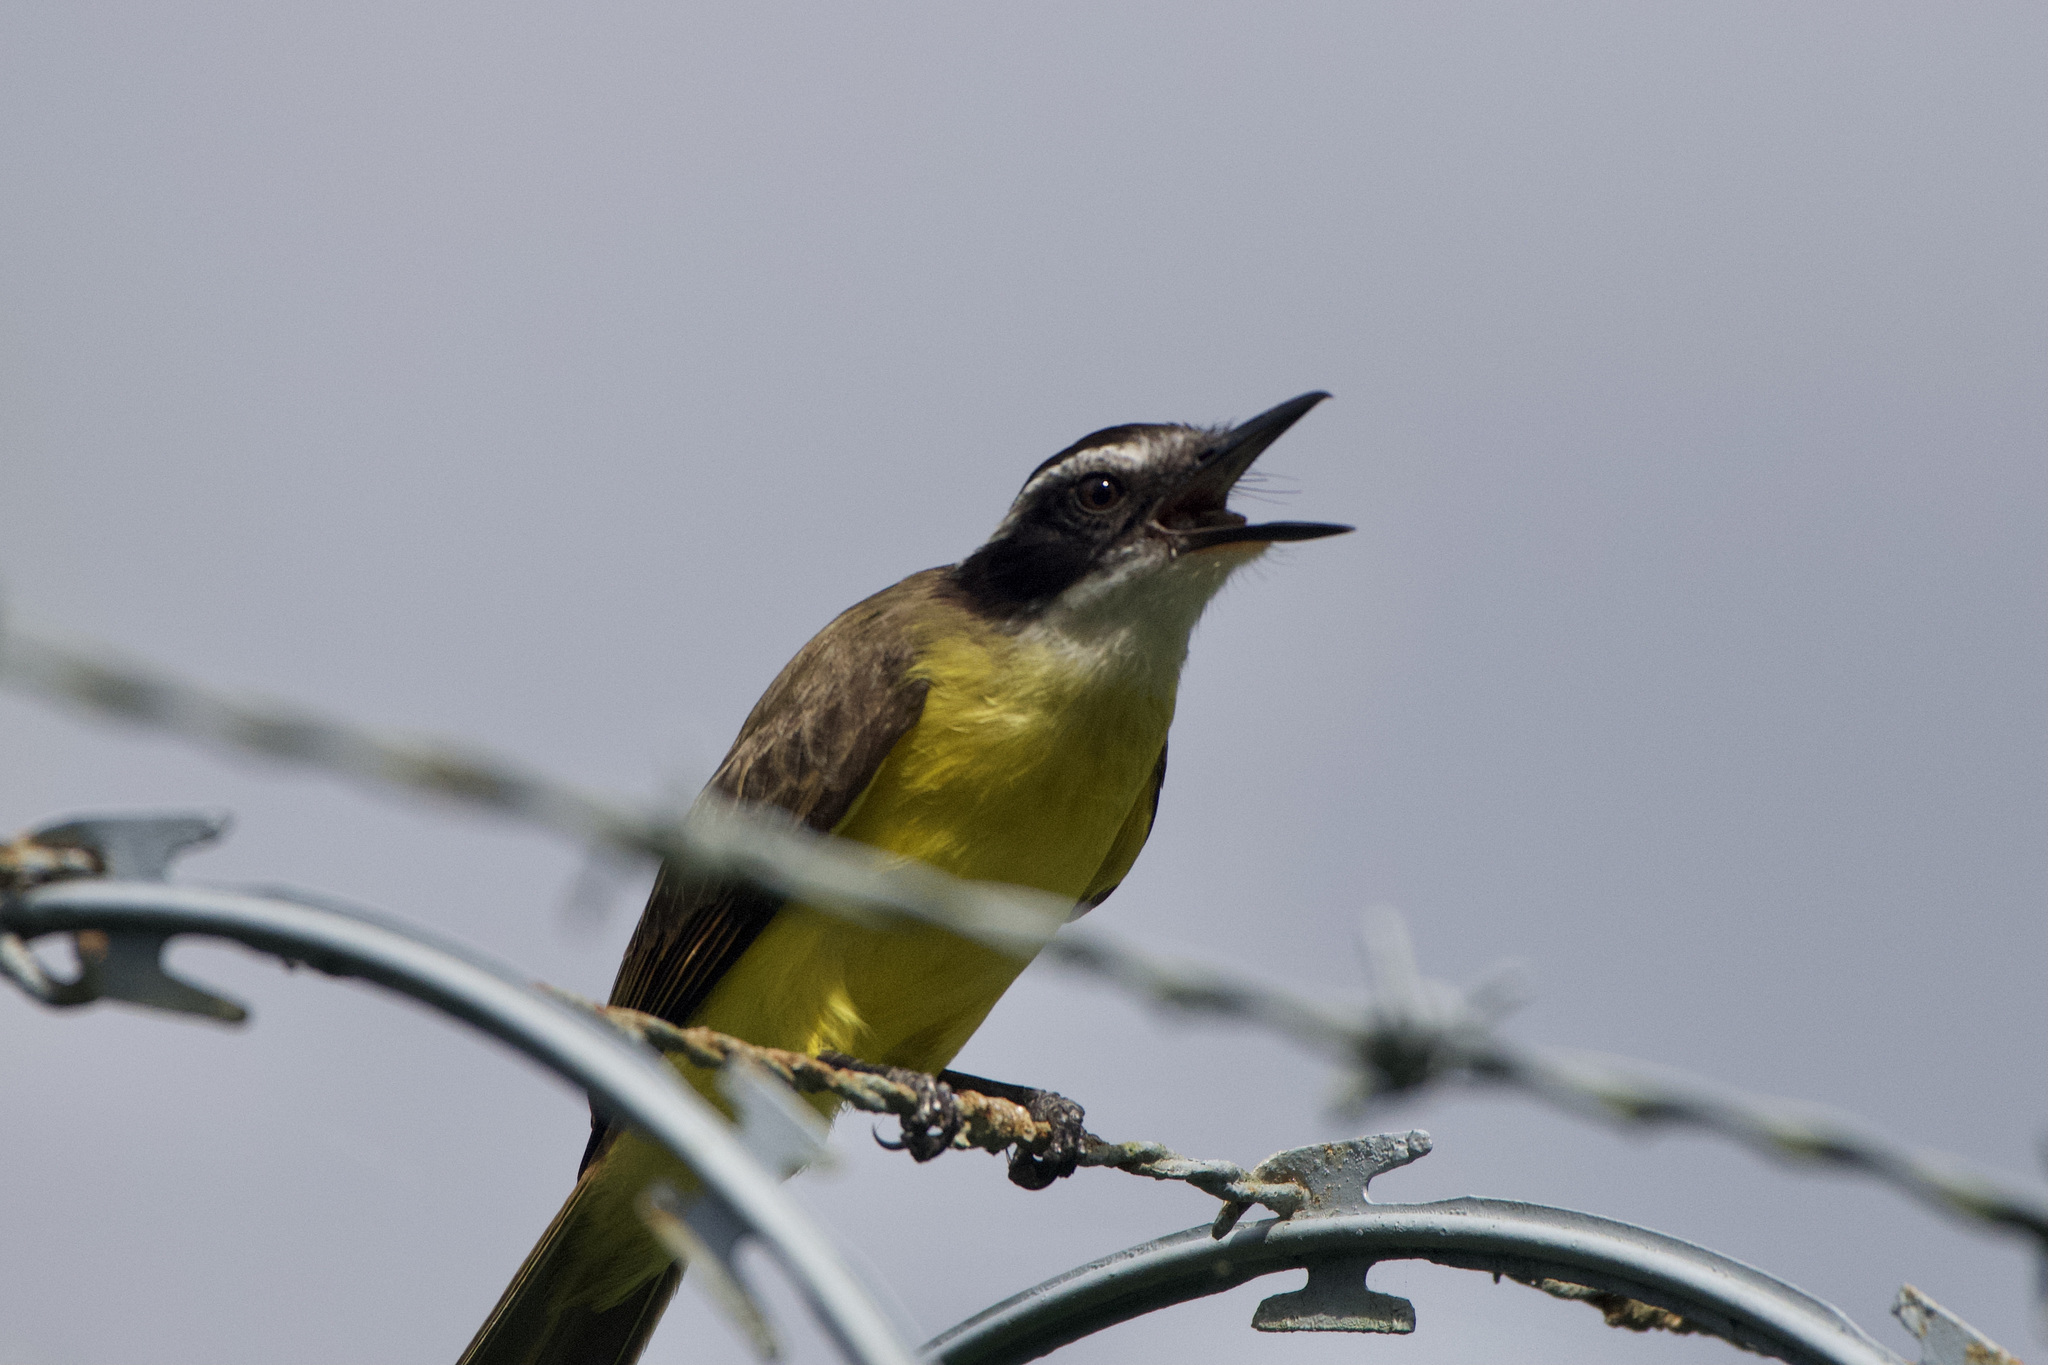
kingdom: Animalia
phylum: Chordata
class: Aves
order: Passeriformes
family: Tyrannidae
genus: Pitangus
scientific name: Pitangus lictor
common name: Lesser kiskadee
